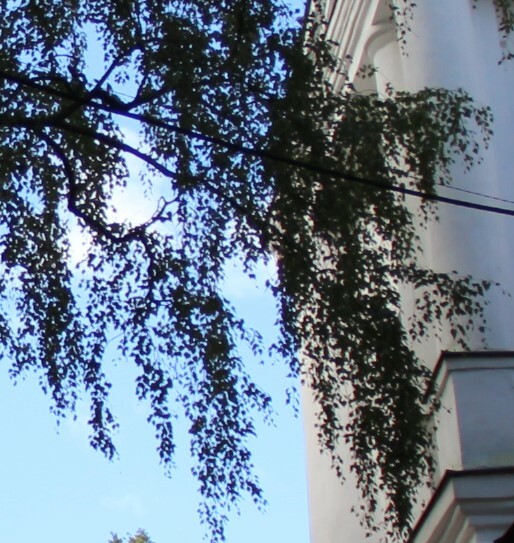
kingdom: Plantae
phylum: Tracheophyta
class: Magnoliopsida
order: Fagales
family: Betulaceae
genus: Betula
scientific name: Betula pendula
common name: Silver birch
